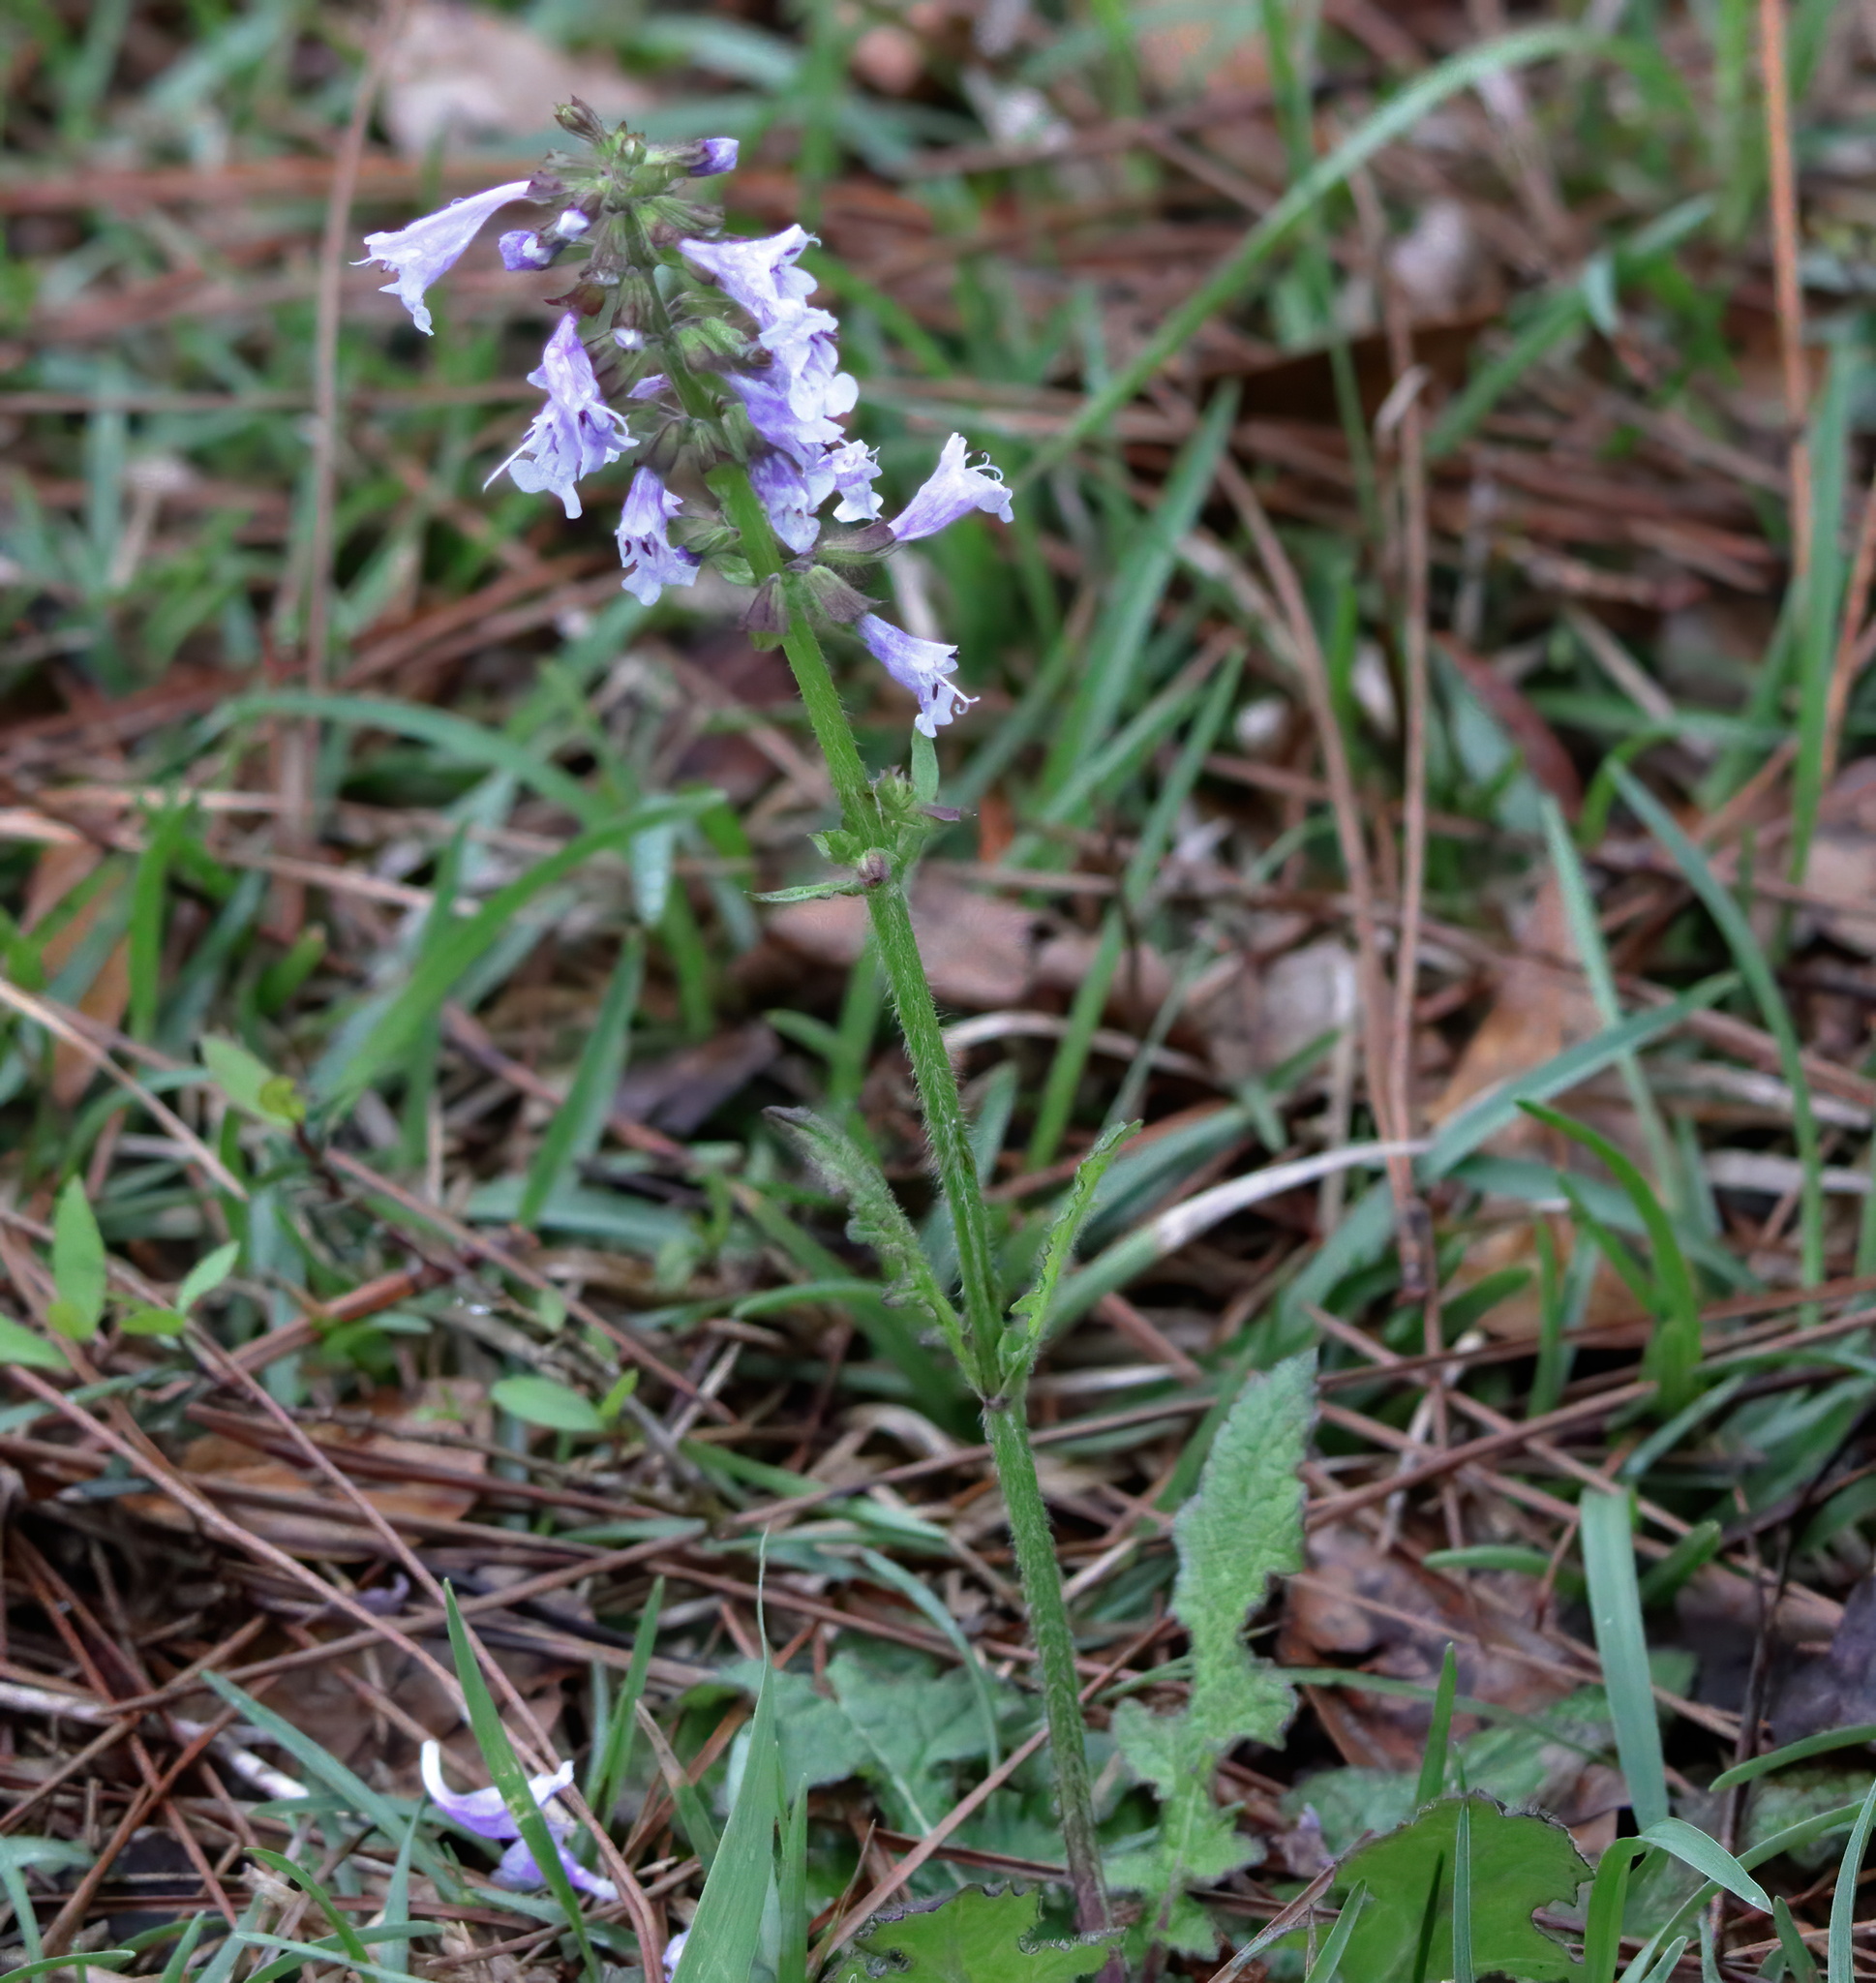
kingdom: Plantae
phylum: Tracheophyta
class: Magnoliopsida
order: Lamiales
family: Lamiaceae
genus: Salvia
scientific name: Salvia lyrata
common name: Cancerweed
